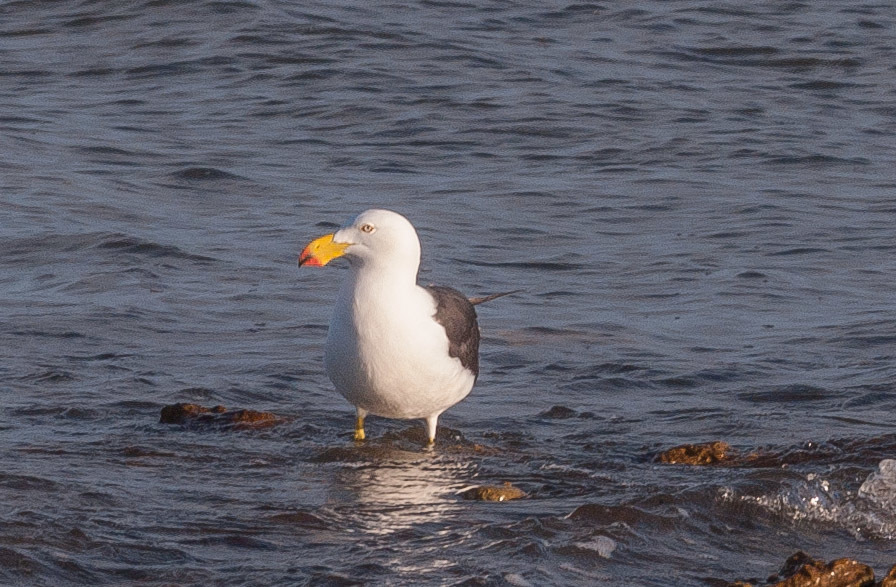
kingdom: Animalia
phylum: Chordata
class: Aves
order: Charadriiformes
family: Laridae
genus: Larus
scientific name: Larus pacificus
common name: Pacific gull
